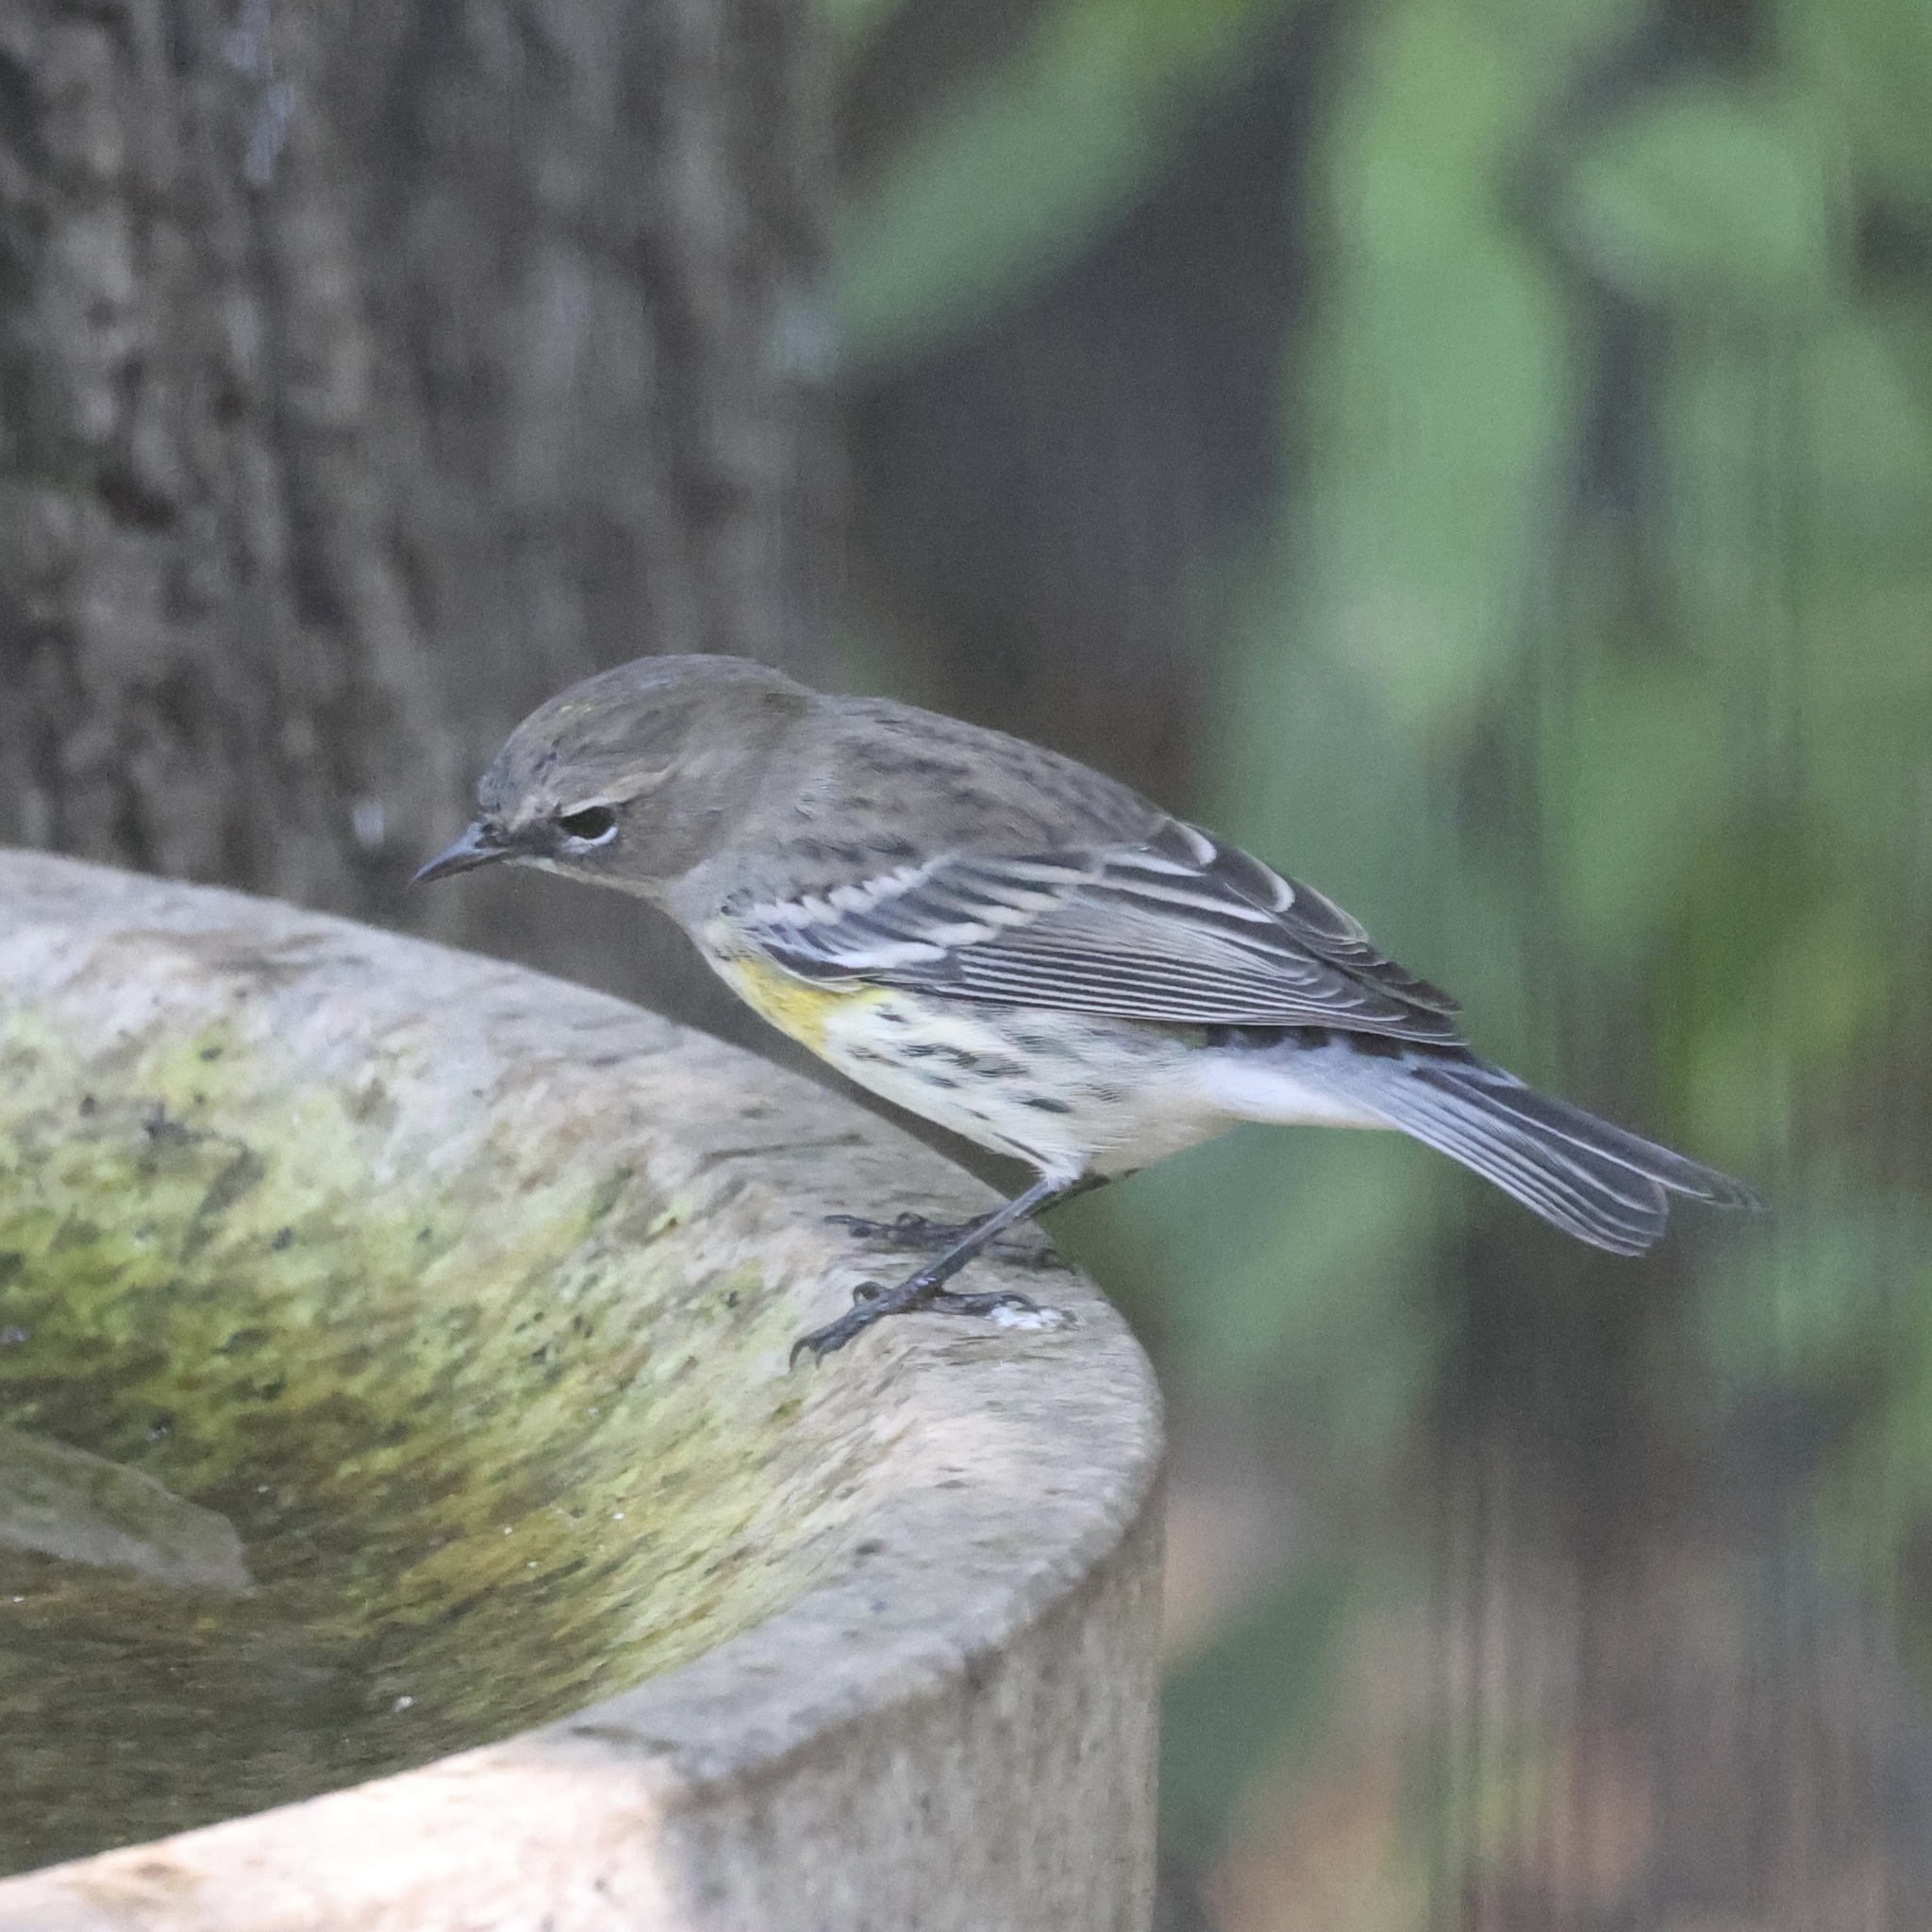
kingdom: Animalia
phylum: Chordata
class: Aves
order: Passeriformes
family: Parulidae
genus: Setophaga
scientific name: Setophaga coronata
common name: Myrtle warbler
